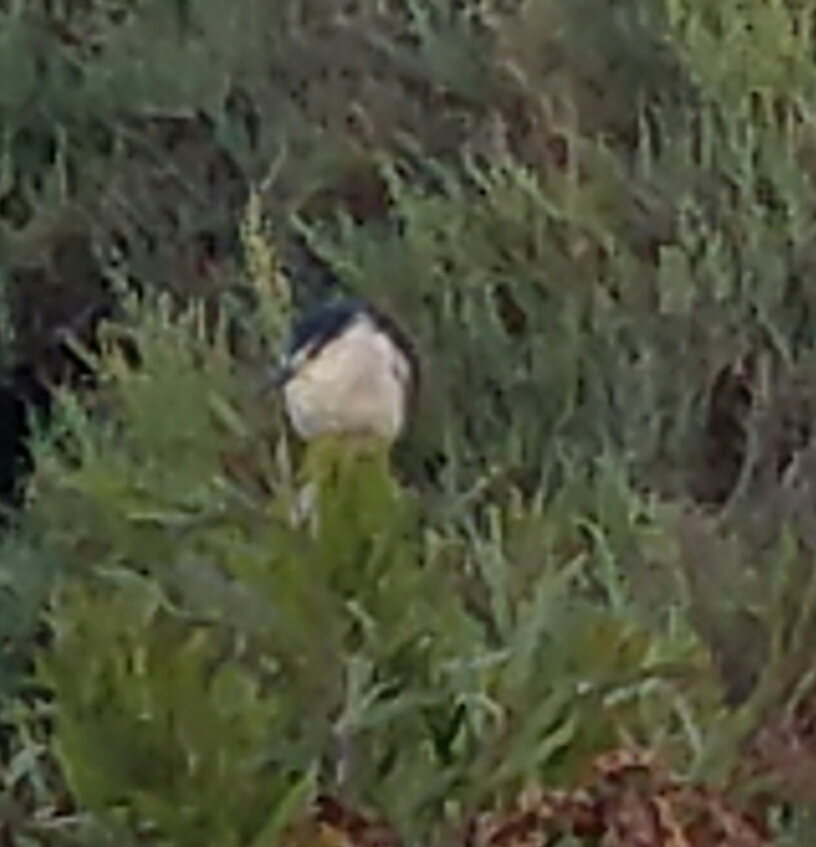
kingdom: Animalia
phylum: Chordata
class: Aves
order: Pelecaniformes
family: Ardeidae
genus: Nycticorax
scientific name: Nycticorax nycticorax
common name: Black-crowned night heron
